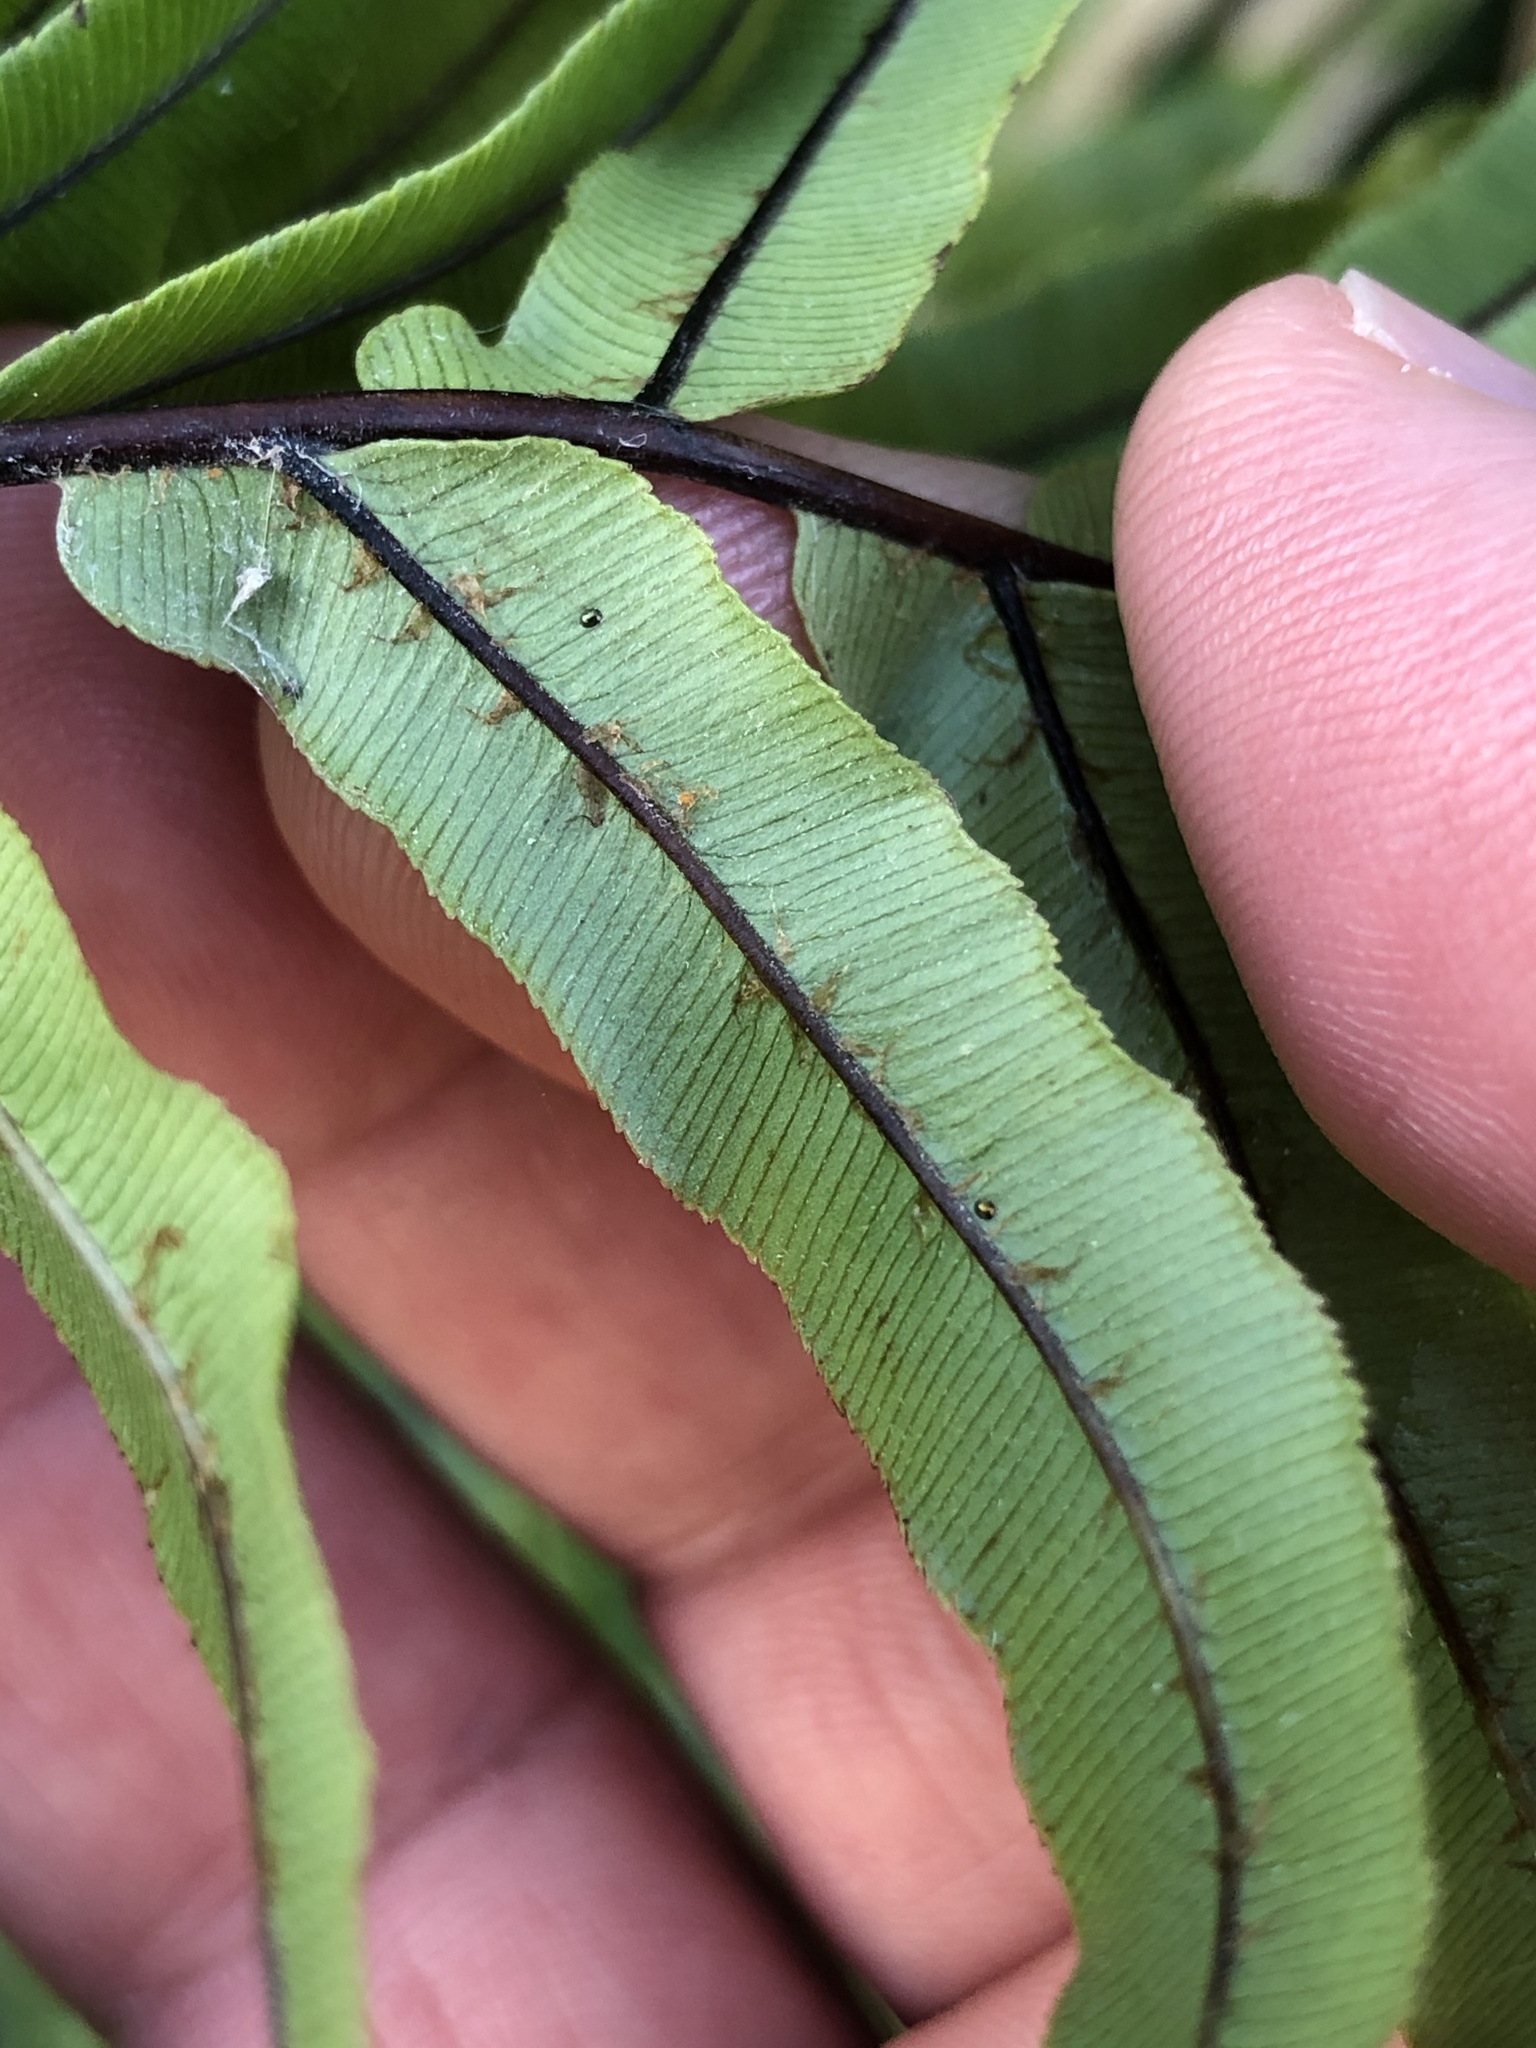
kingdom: Plantae
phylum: Tracheophyta
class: Polypodiopsida
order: Polypodiales
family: Blechnaceae
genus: Parablechnum
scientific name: Parablechnum minus
